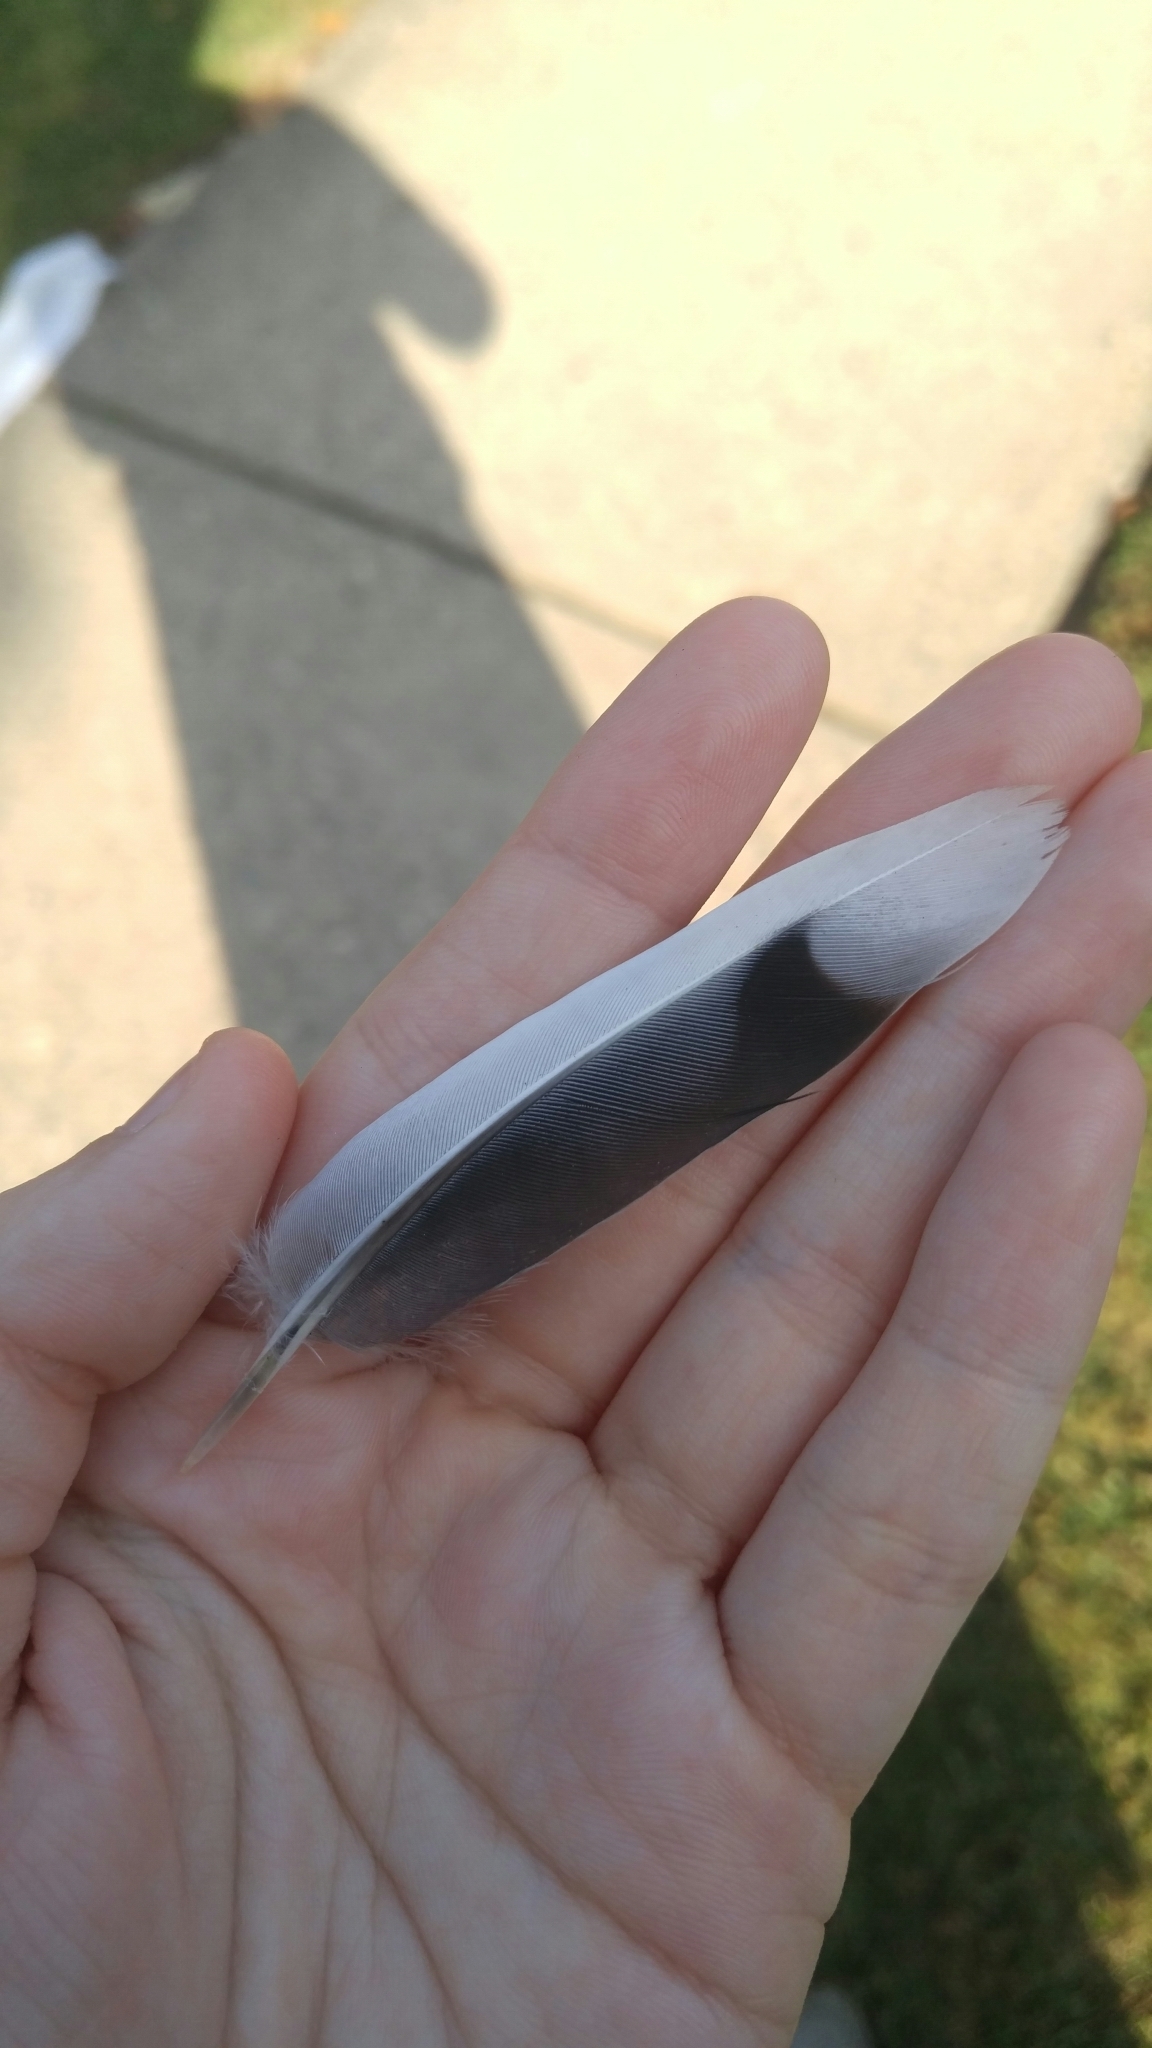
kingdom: Animalia
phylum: Chordata
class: Aves
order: Columbiformes
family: Columbidae
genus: Zenaida
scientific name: Zenaida macroura
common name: Mourning dove
